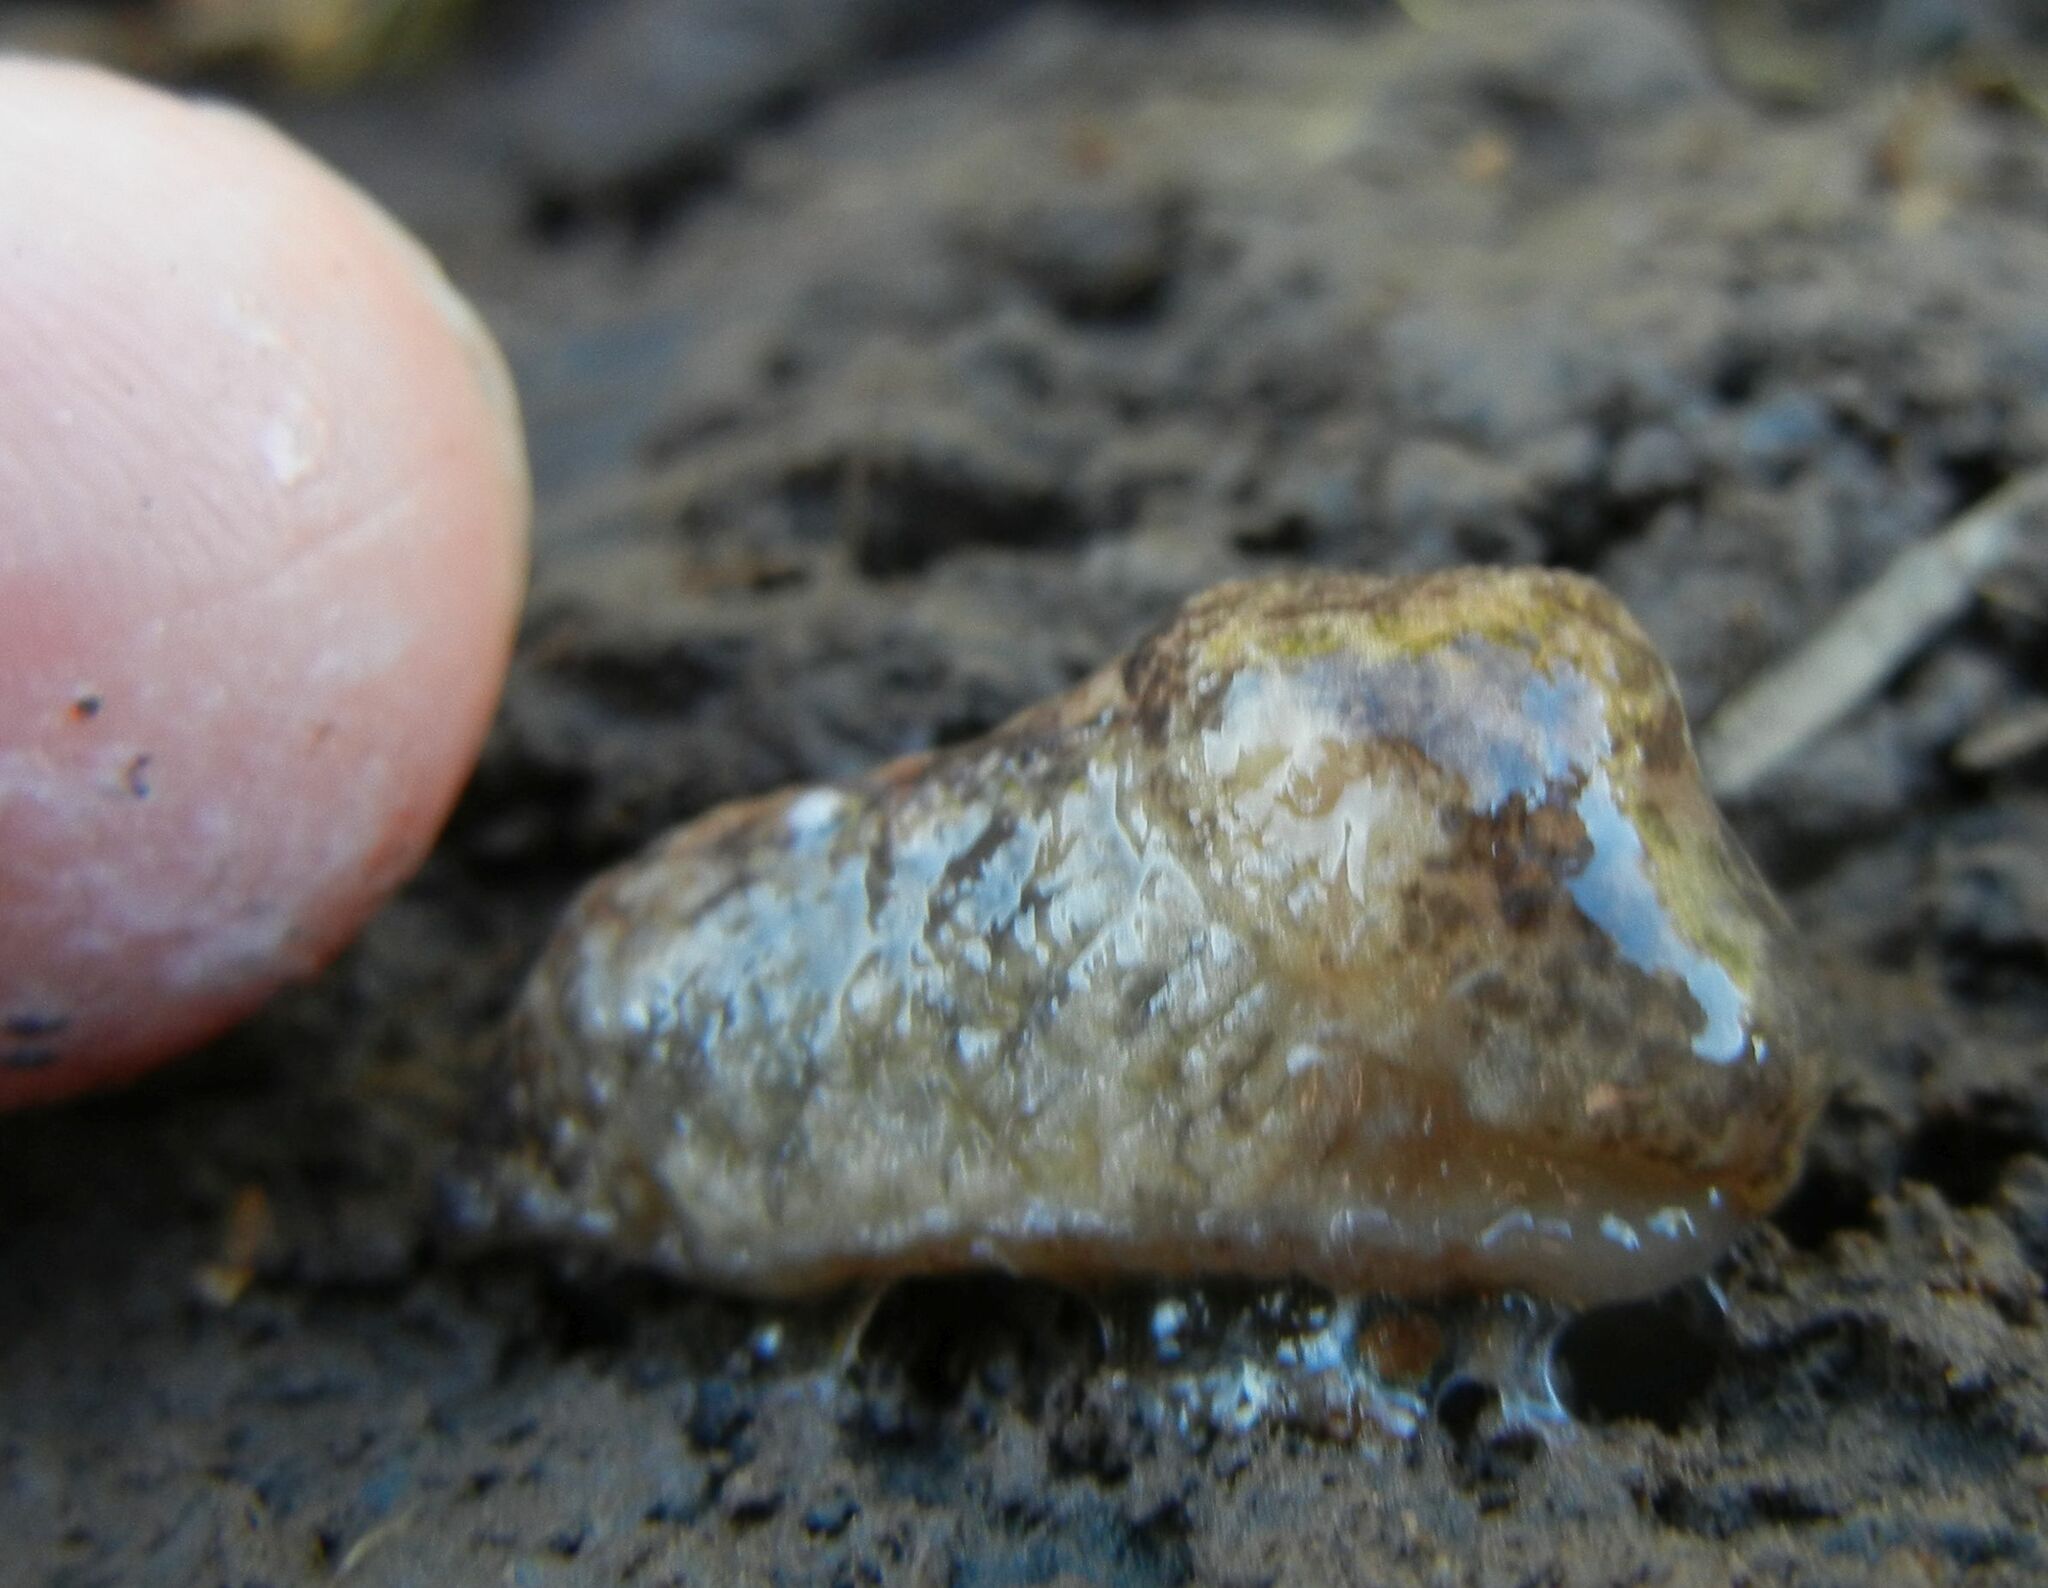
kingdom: Animalia
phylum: Mollusca
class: Gastropoda
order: Stylommatophora
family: Agriolimacidae
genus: Deroceras
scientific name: Deroceras reticulatum
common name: Gray field slug
